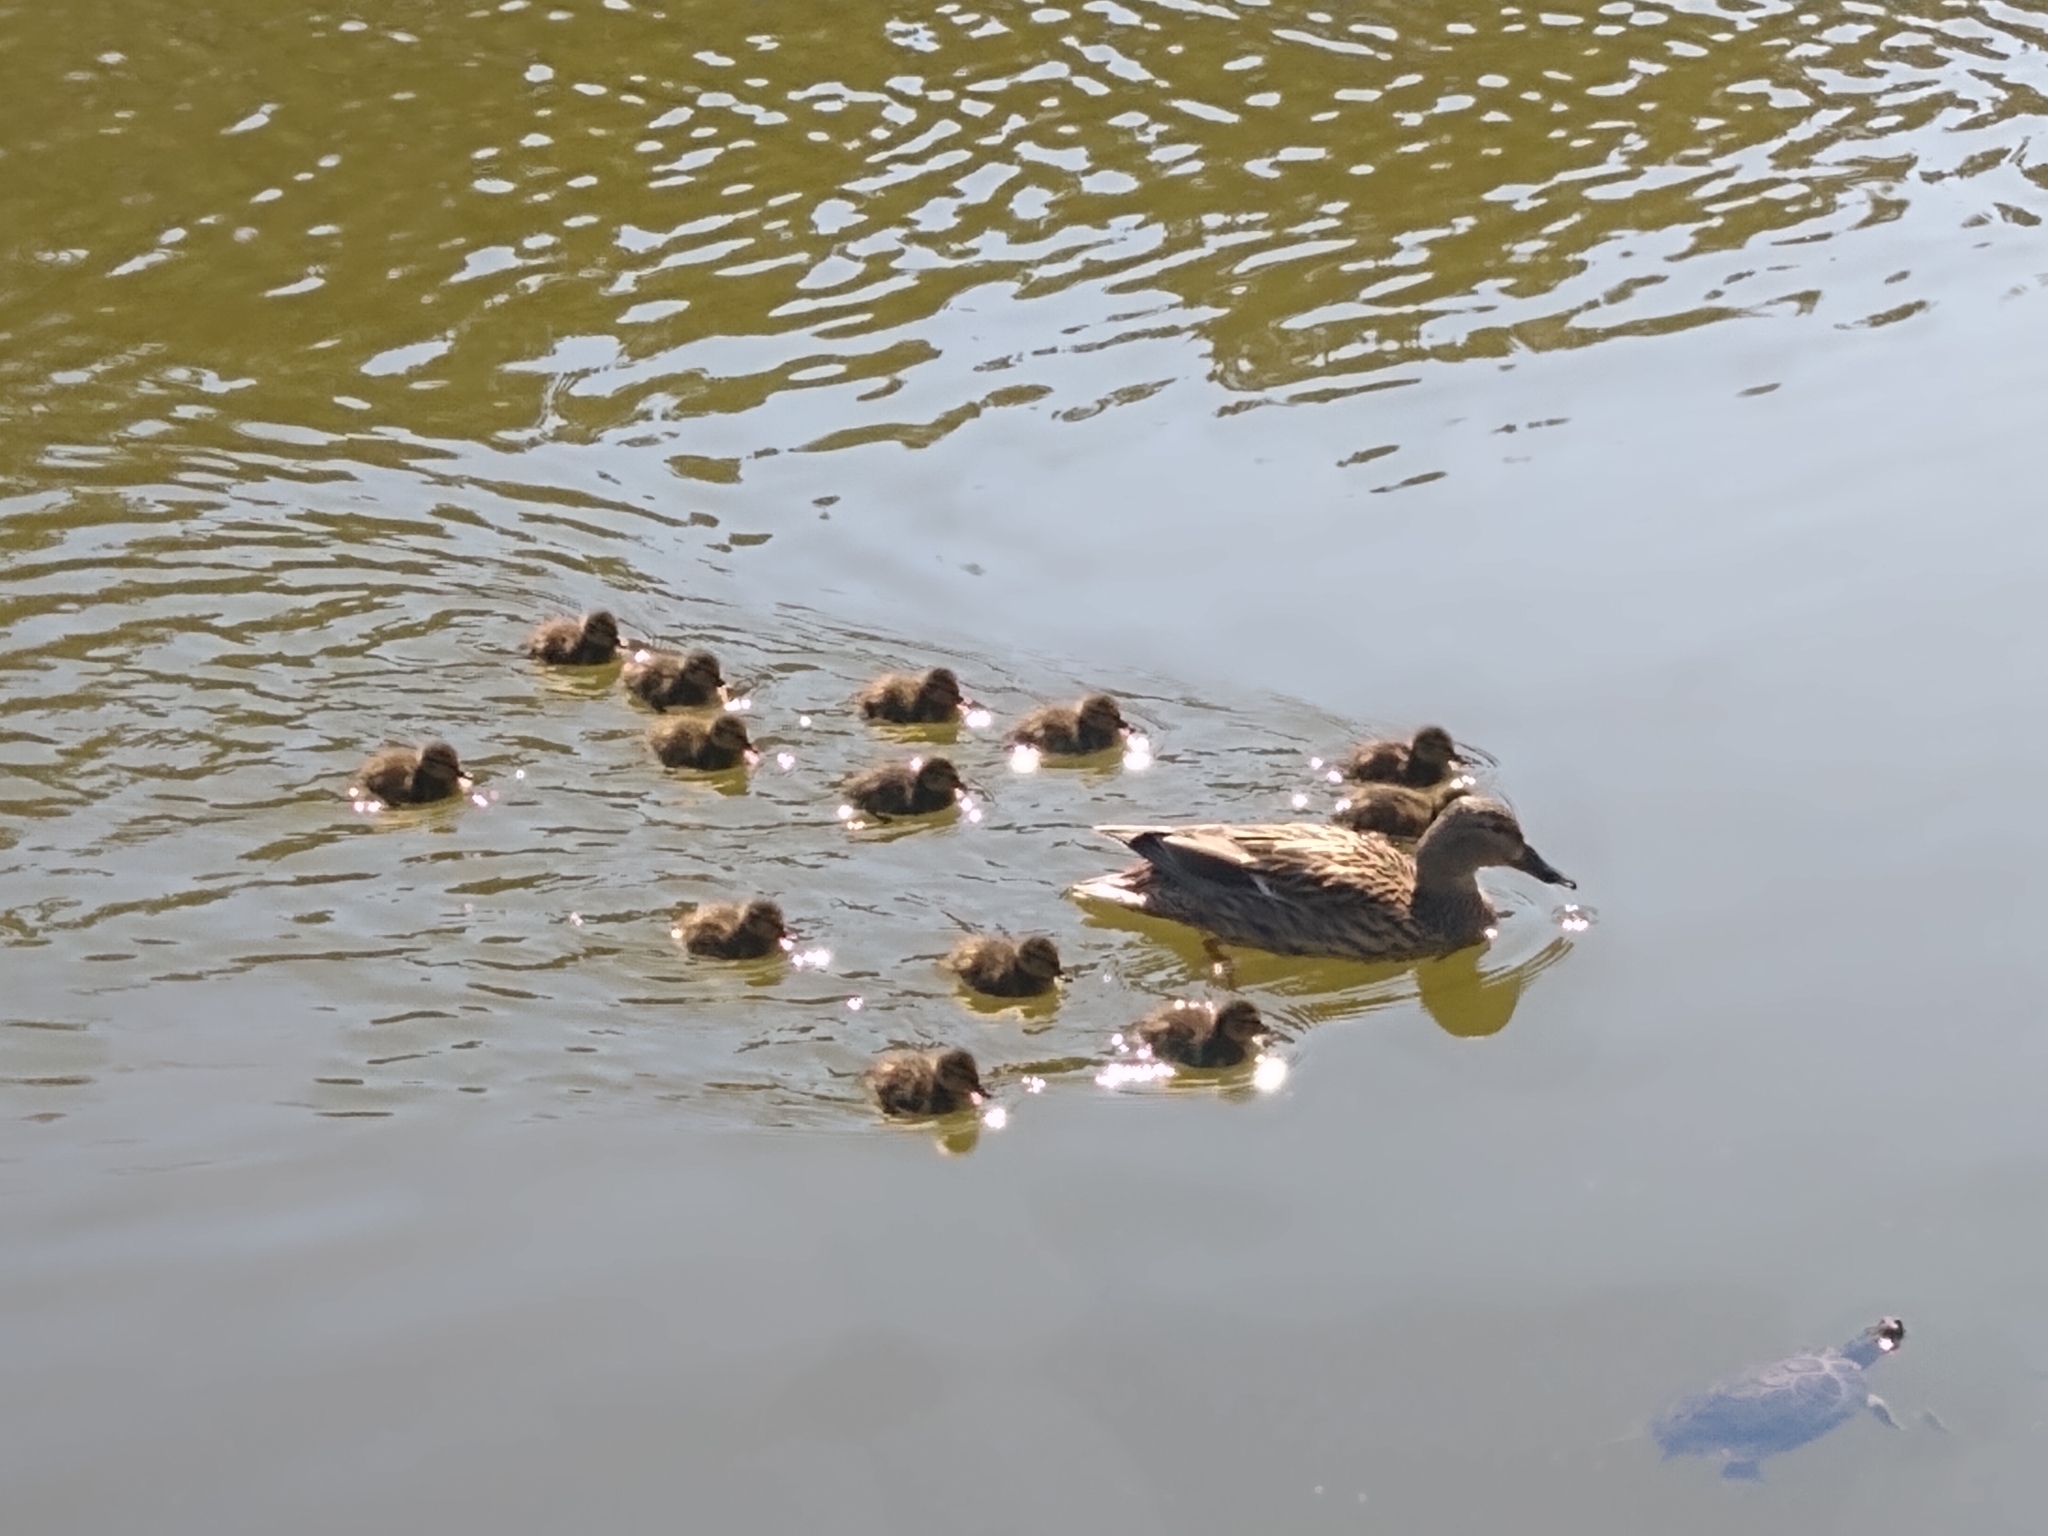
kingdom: Animalia
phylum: Chordata
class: Aves
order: Anseriformes
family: Anatidae
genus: Anas
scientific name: Anas platyrhynchos
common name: Mallard
